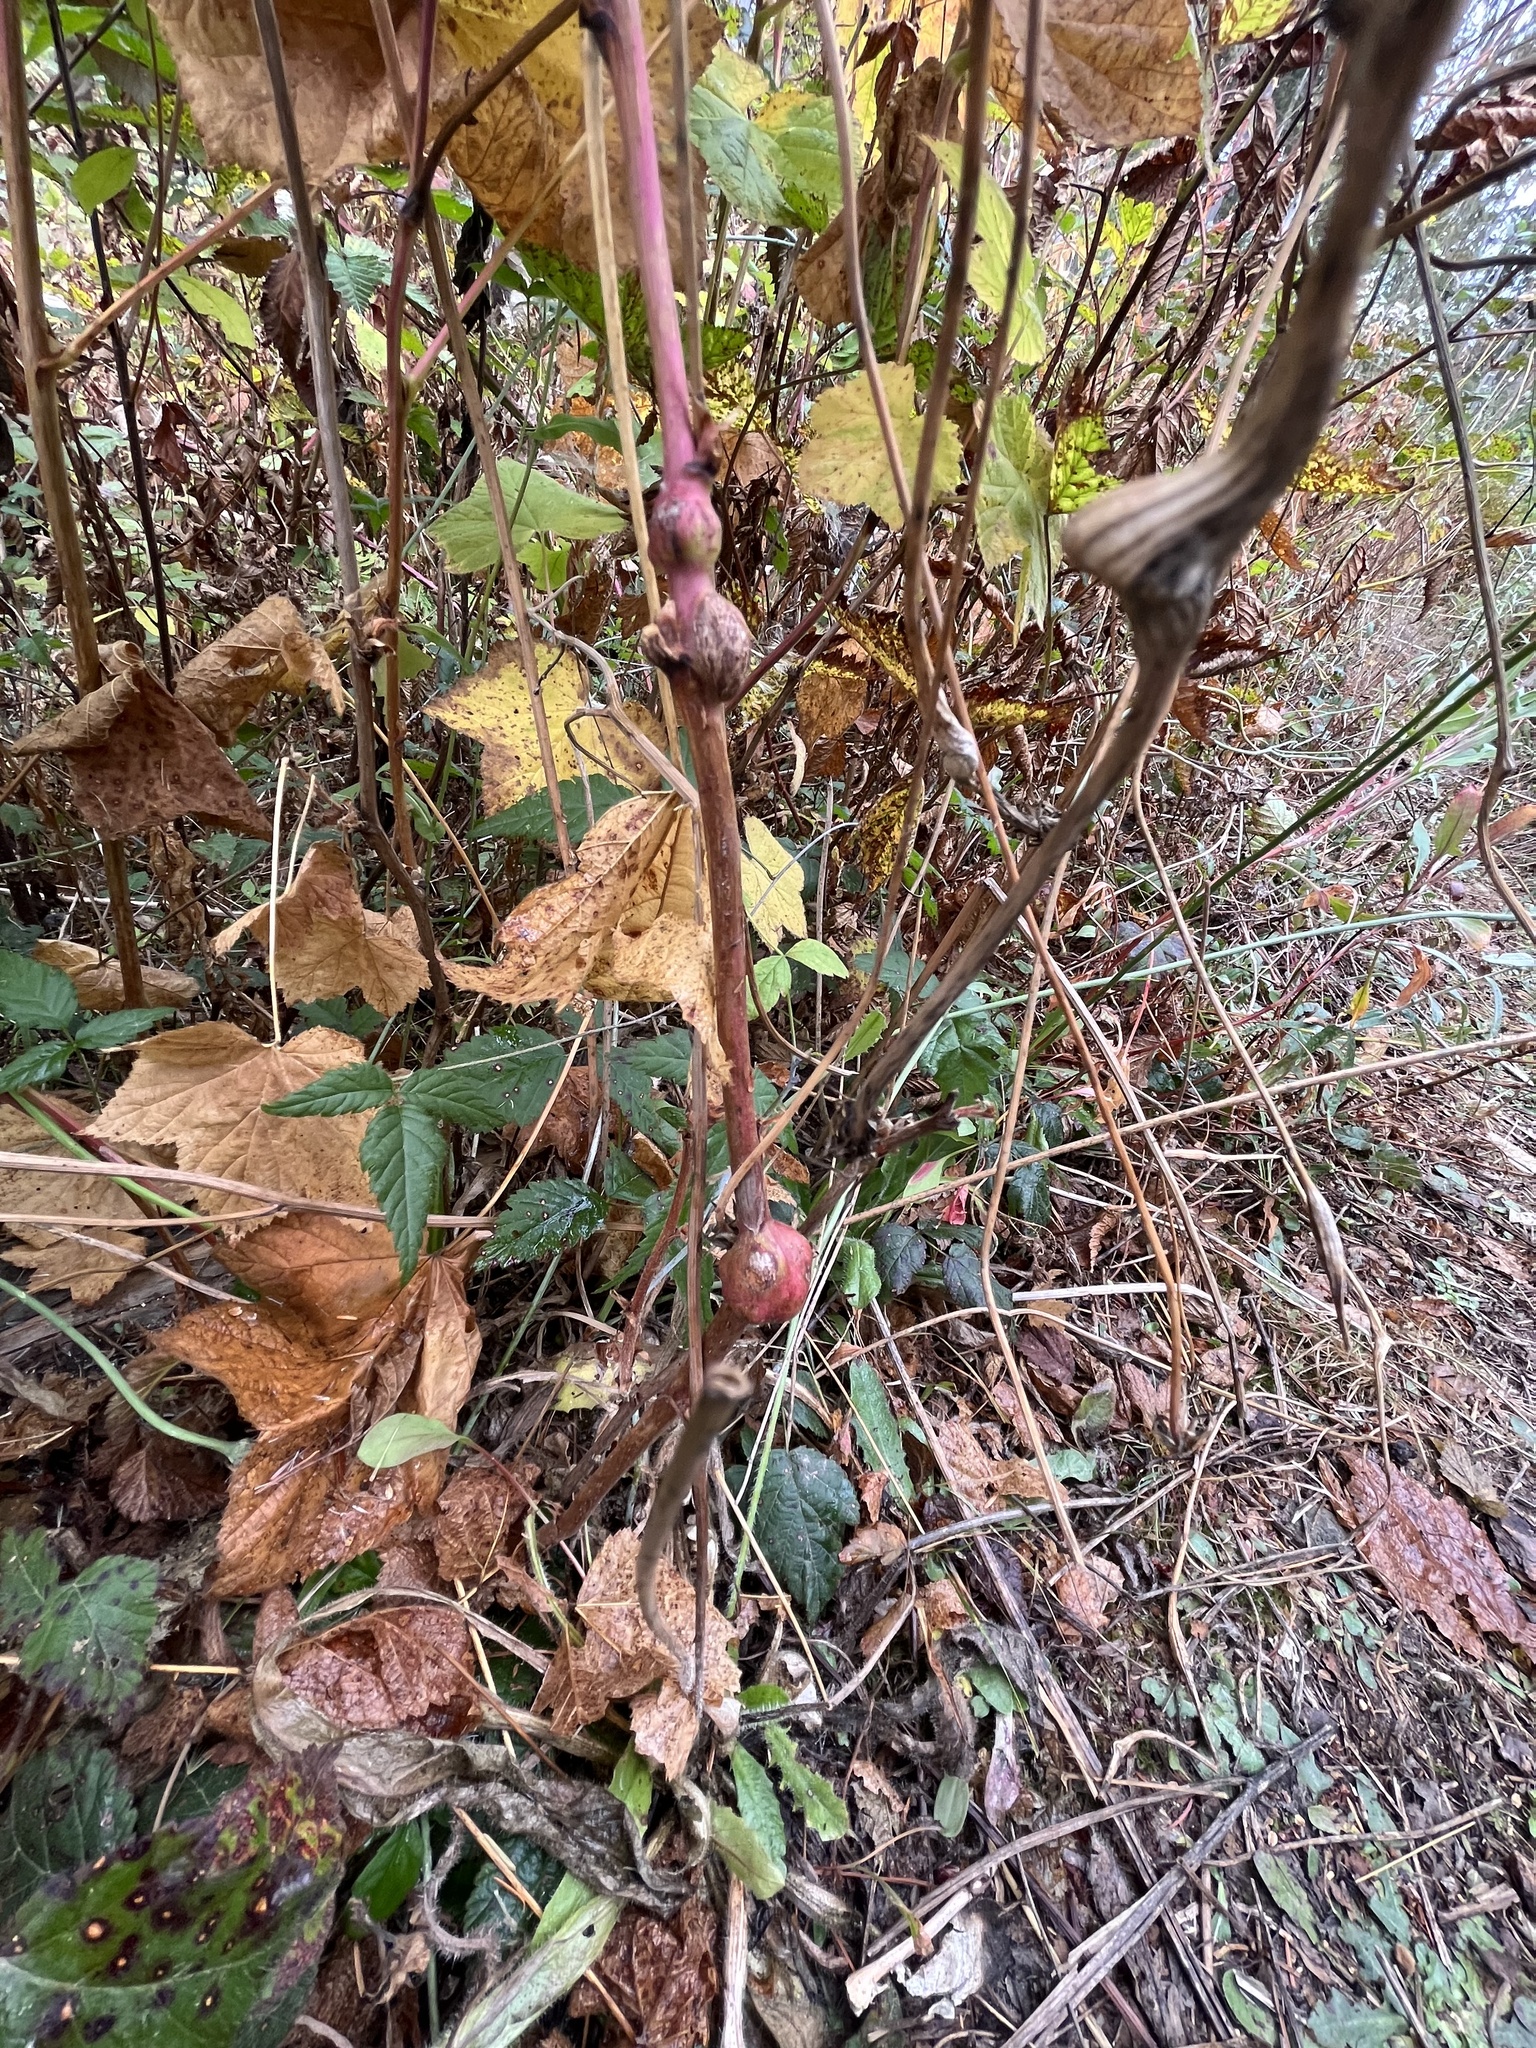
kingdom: Animalia
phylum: Arthropoda
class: Insecta
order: Hymenoptera
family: Cynipidae
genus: Diastrophus
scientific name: Diastrophus
